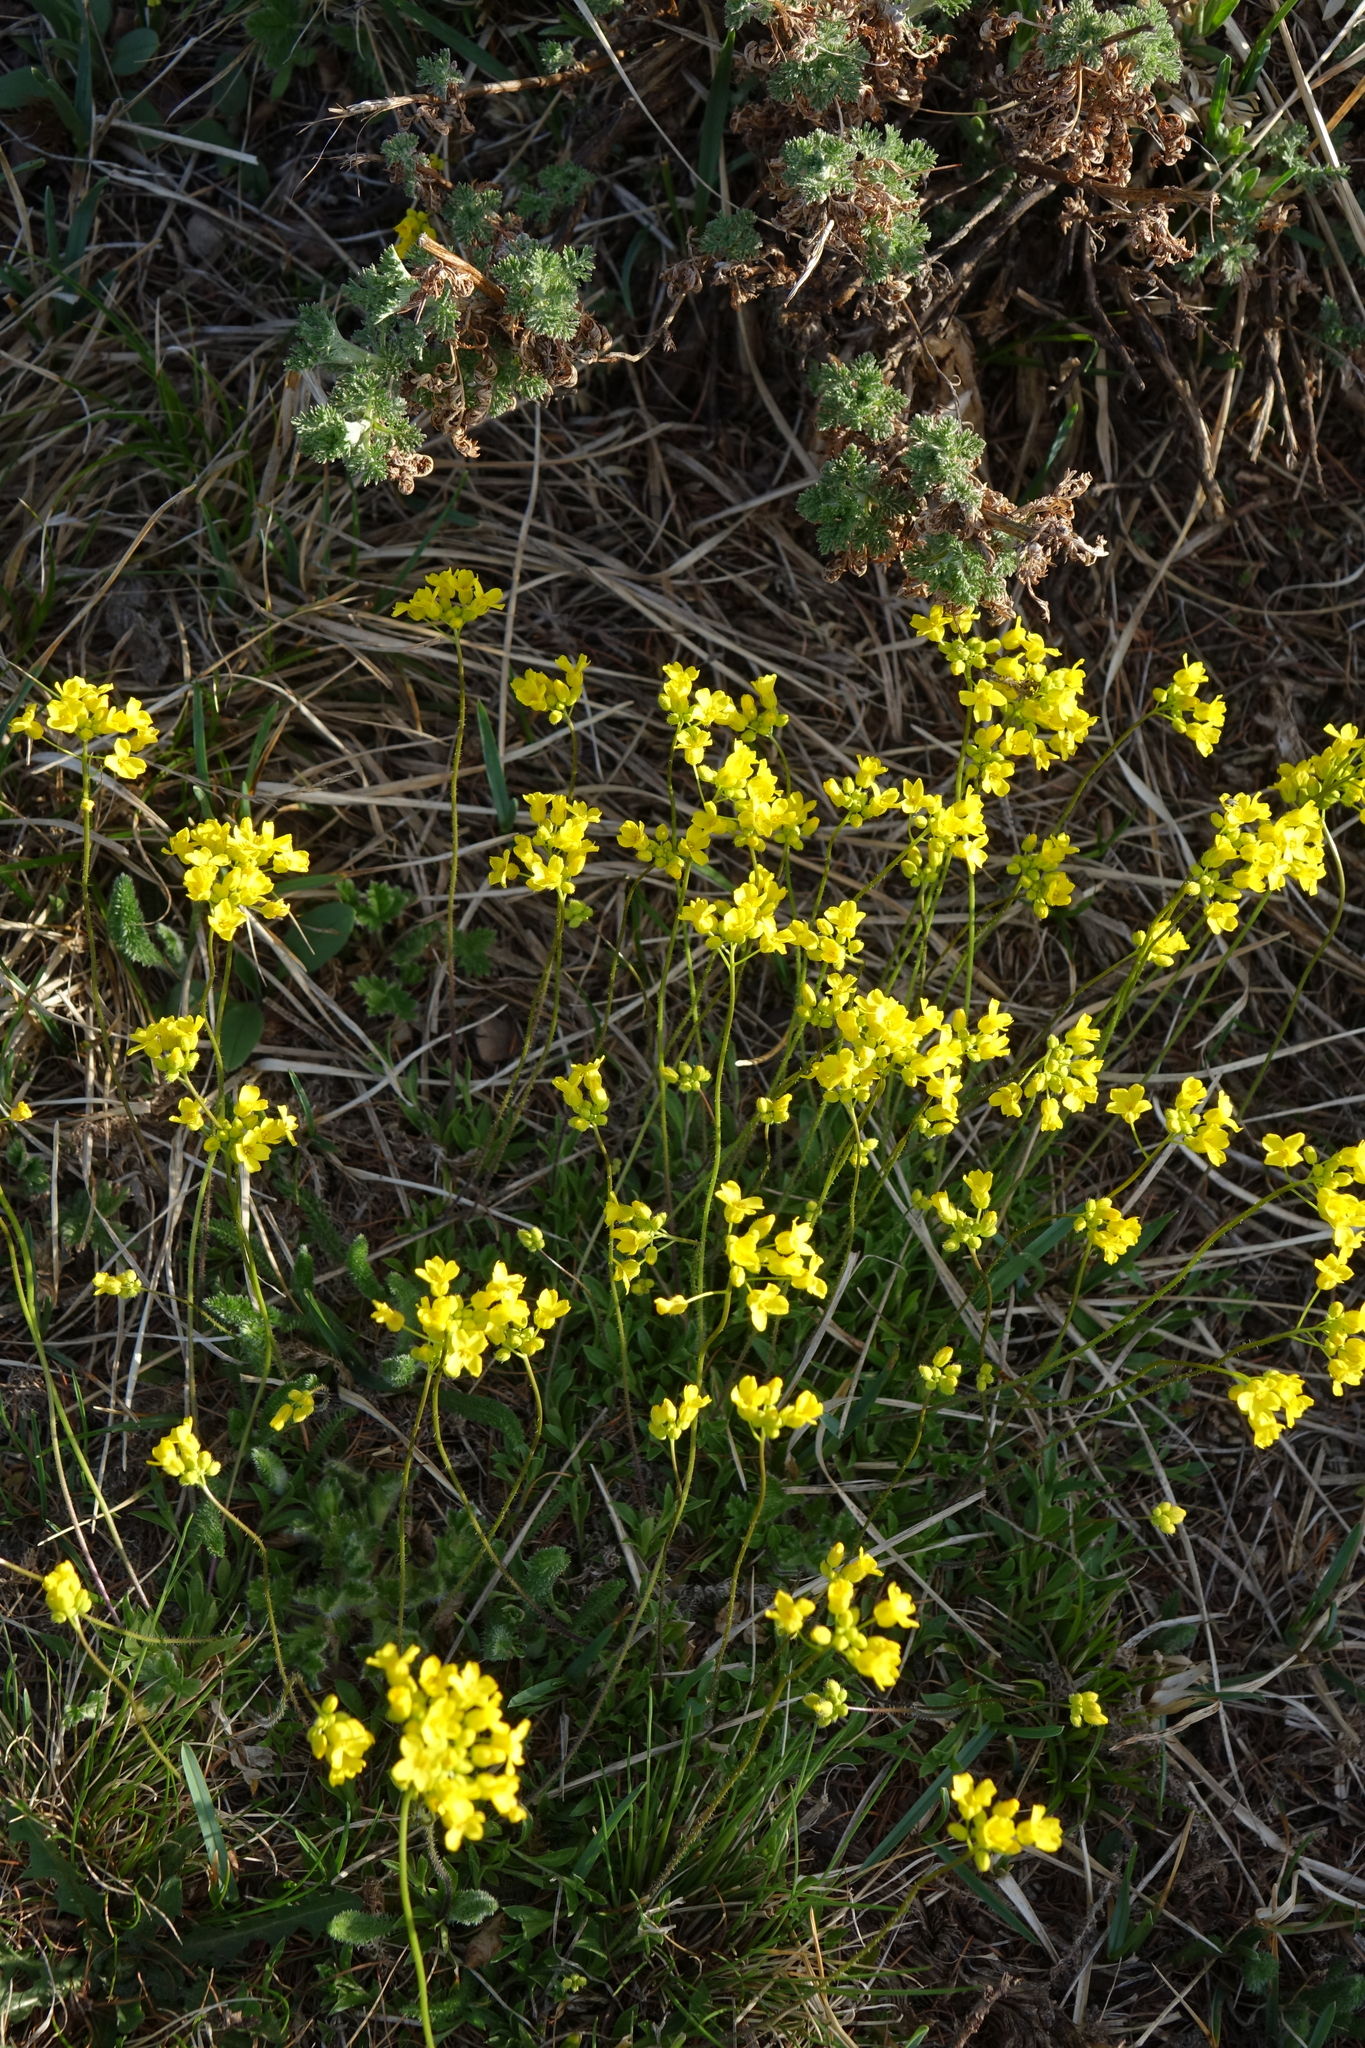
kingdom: Plantae
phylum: Tracheophyta
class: Magnoliopsida
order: Brassicales
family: Brassicaceae
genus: Draba
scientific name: Draba sibirica
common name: Siberian draba
